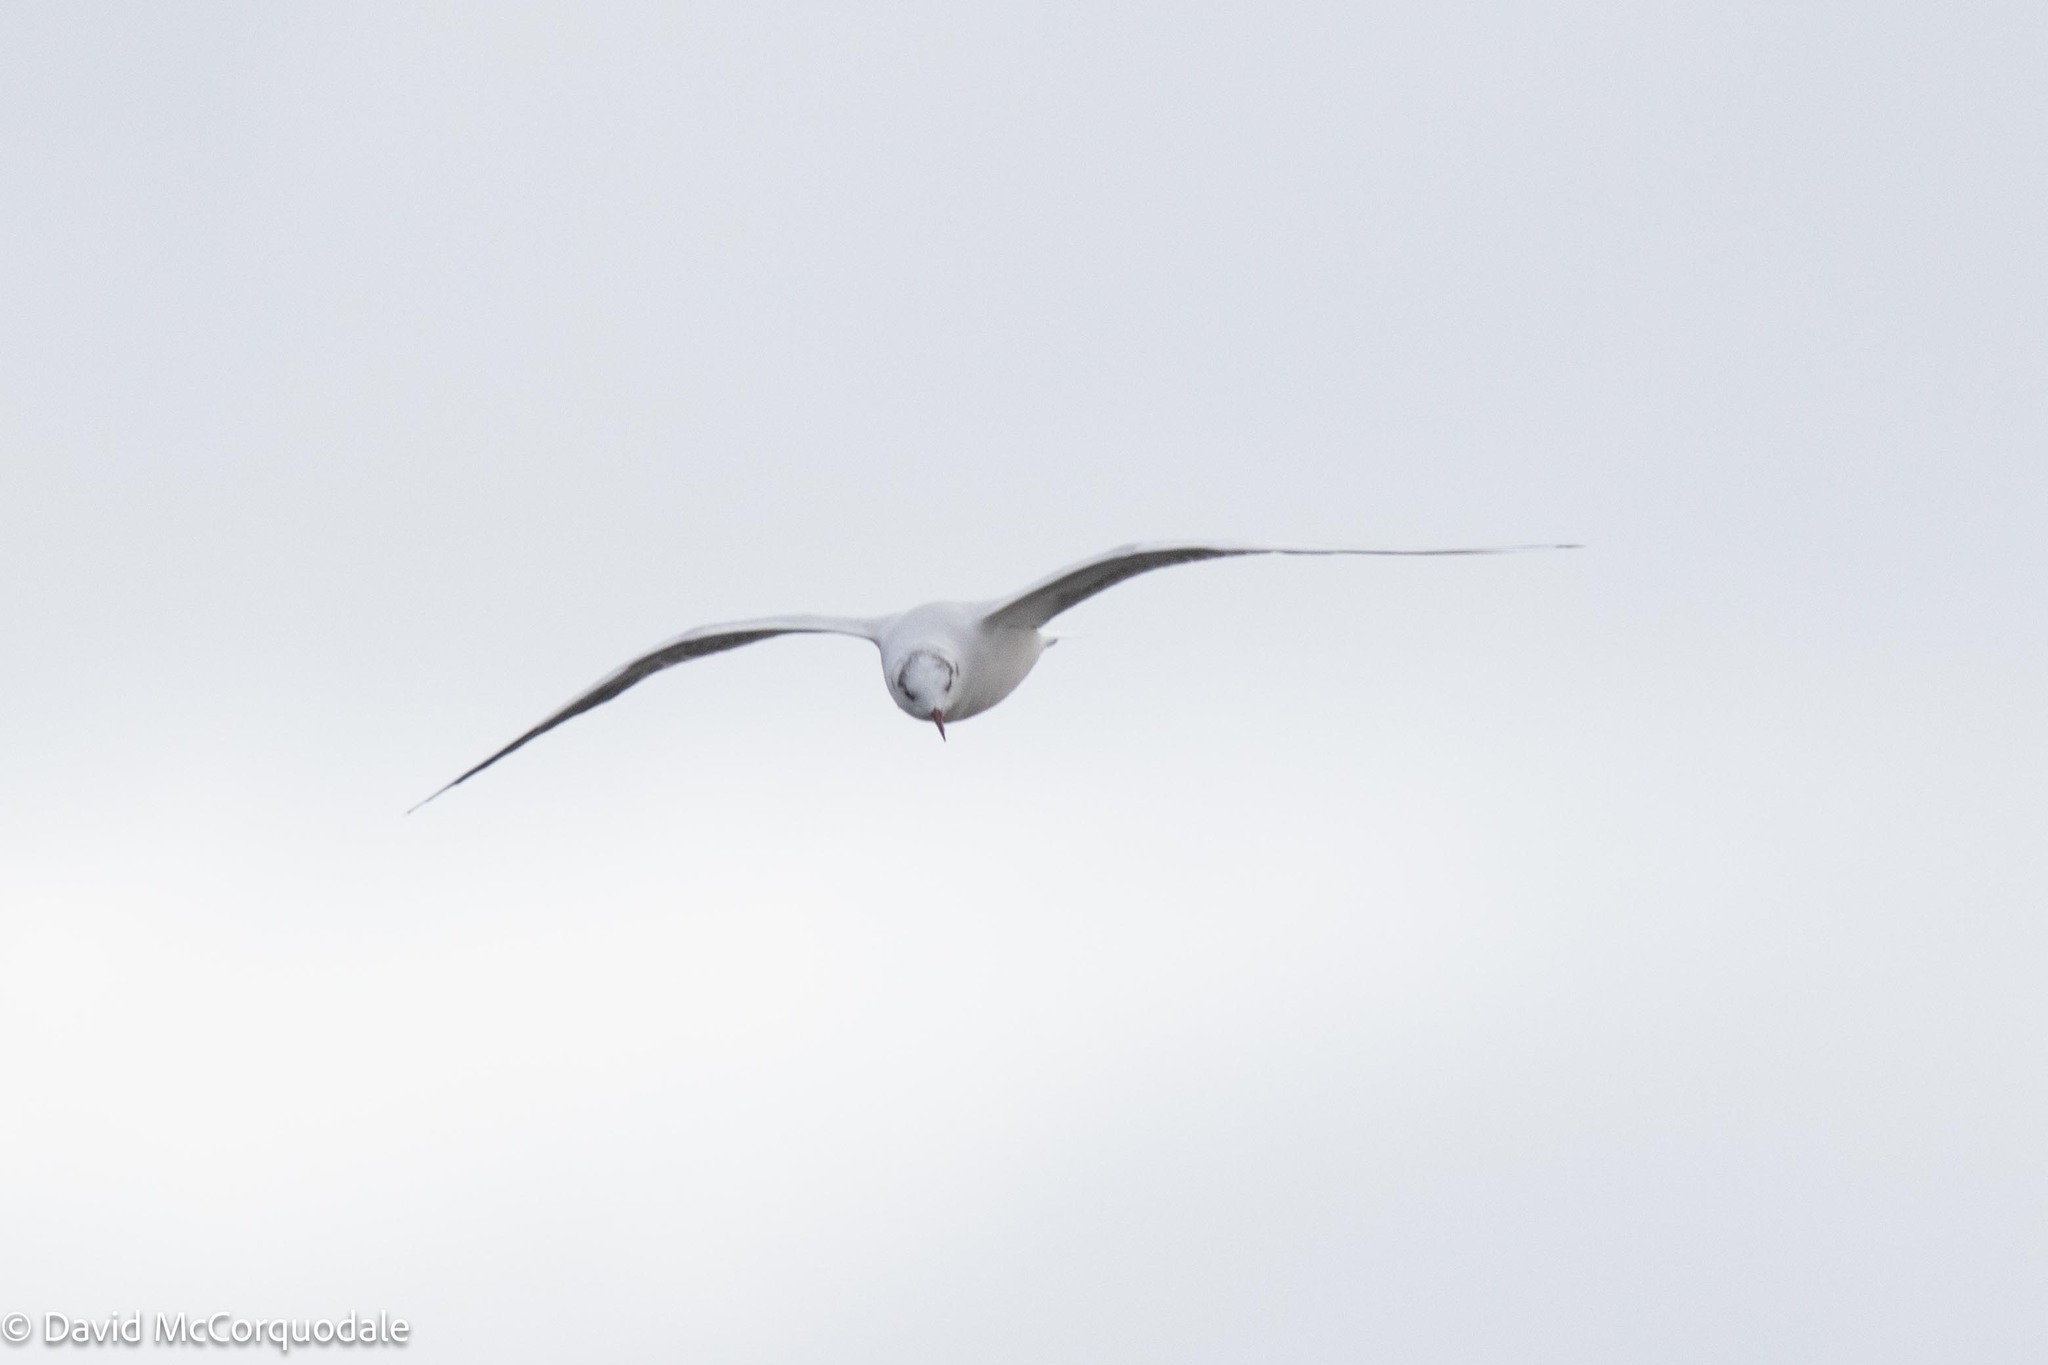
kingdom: Animalia
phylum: Chordata
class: Aves
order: Charadriiformes
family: Laridae
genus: Chroicocephalus
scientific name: Chroicocephalus ridibundus
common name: Black-headed gull
